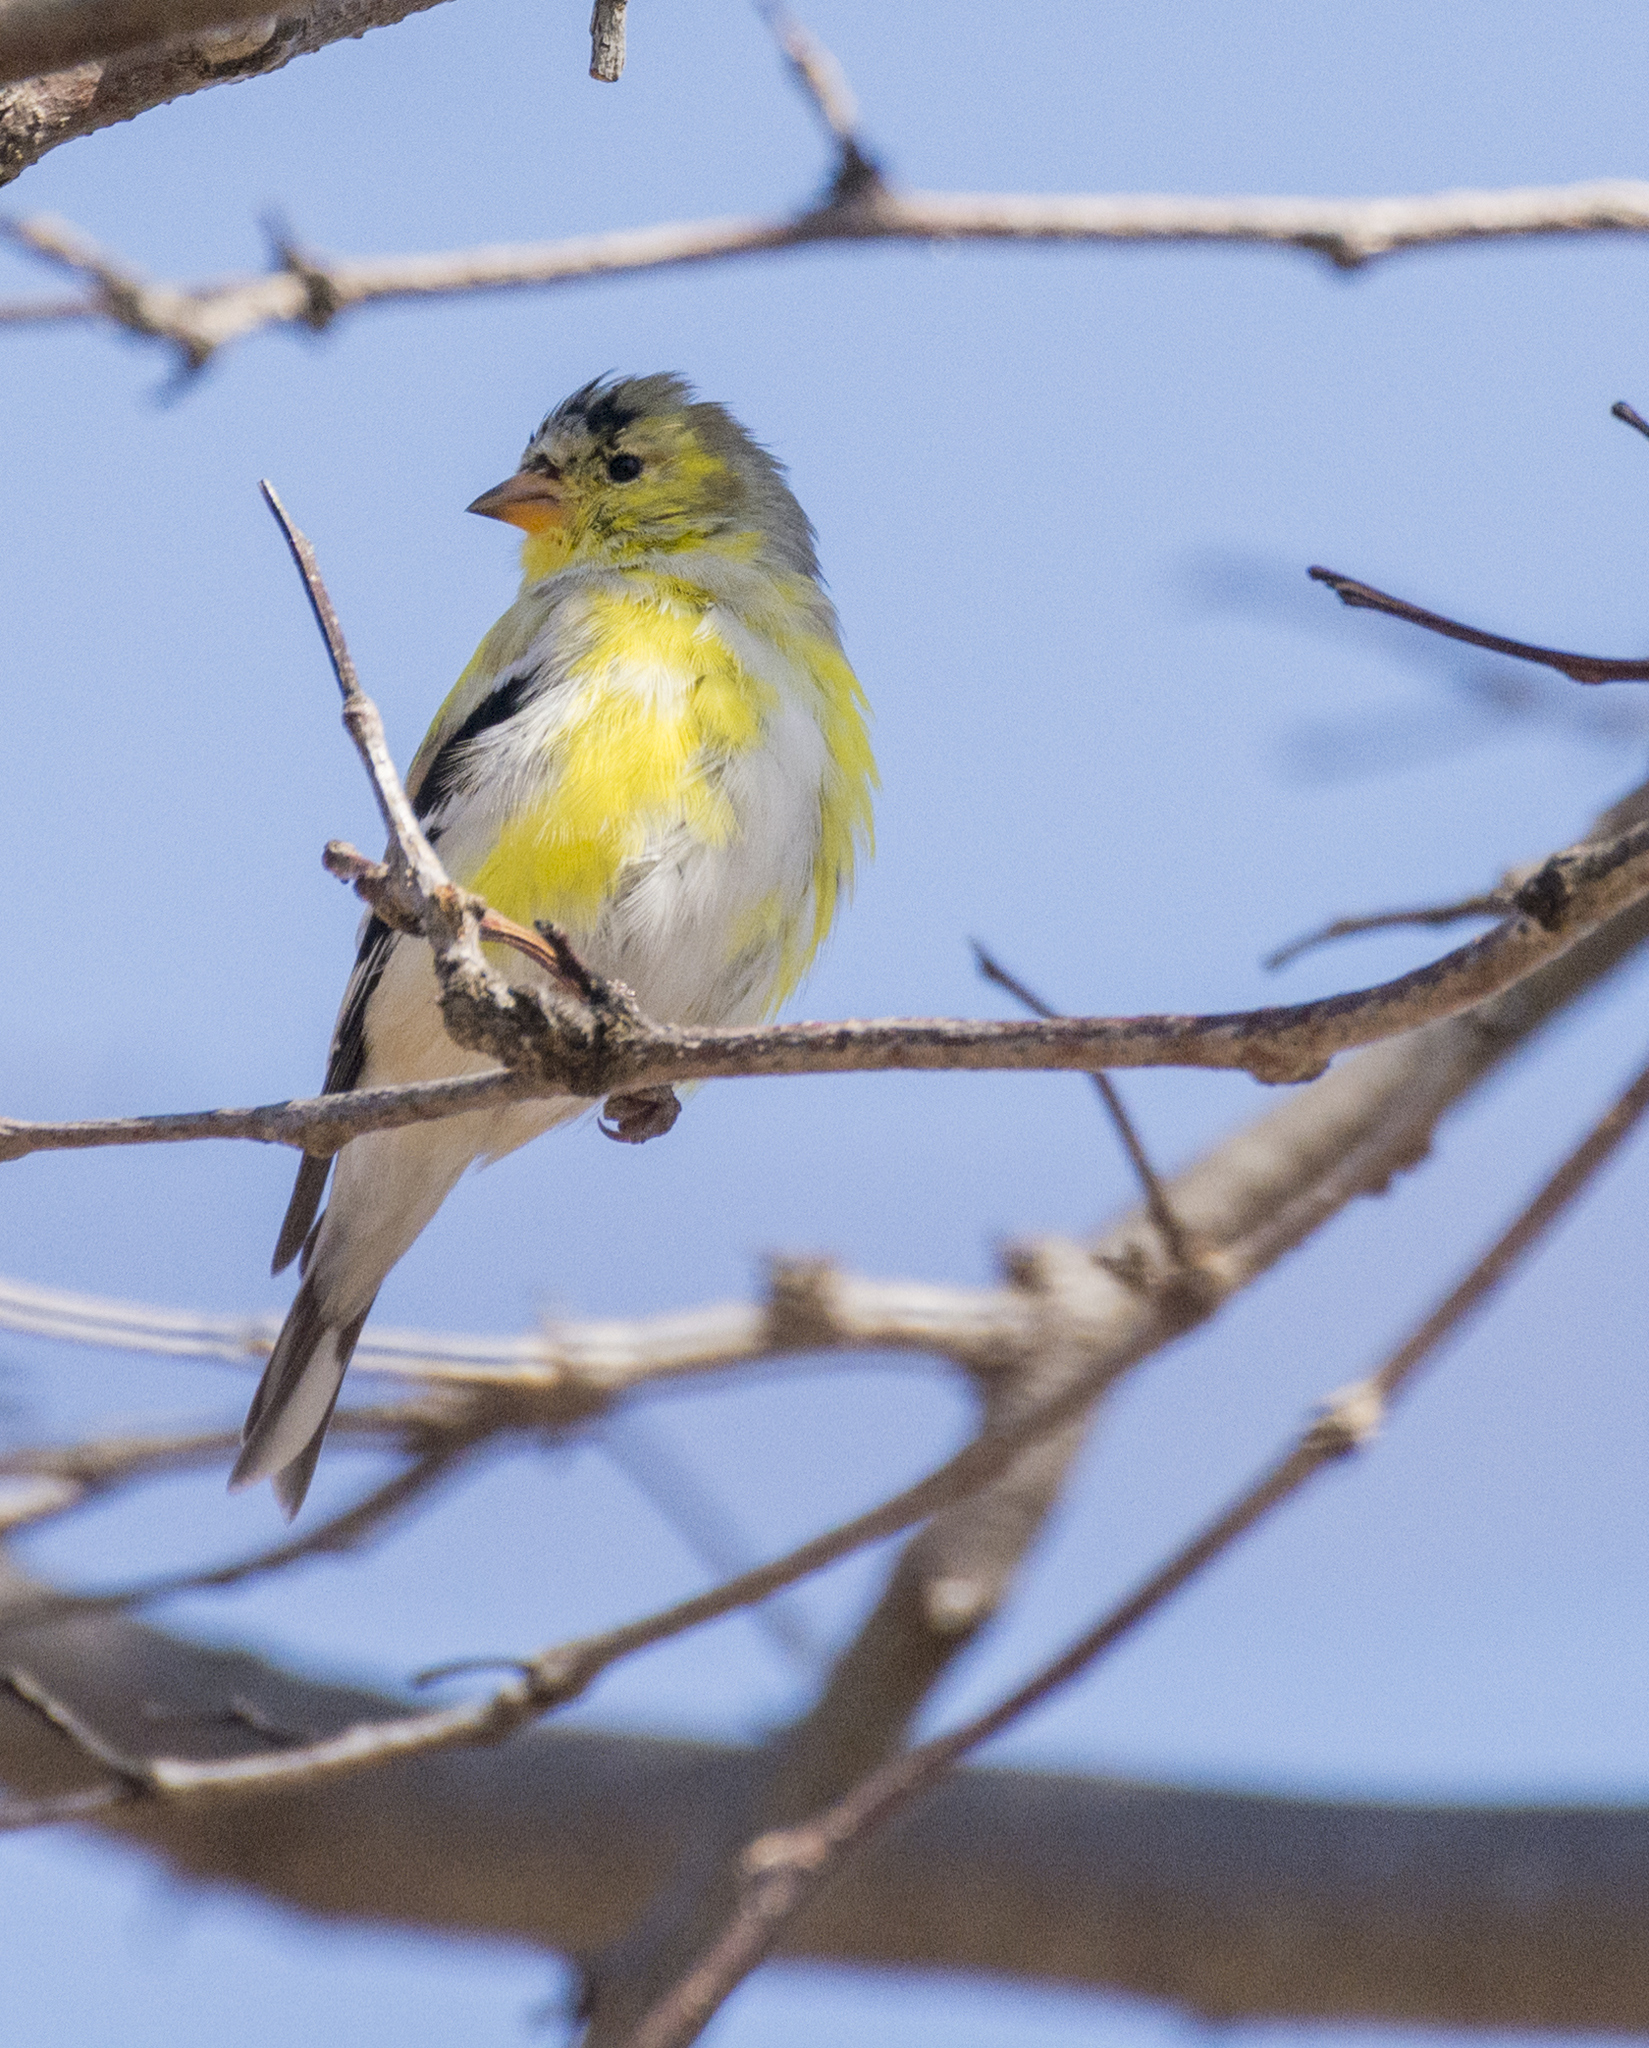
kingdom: Animalia
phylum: Chordata
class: Aves
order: Passeriformes
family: Fringillidae
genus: Spinus
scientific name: Spinus tristis
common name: American goldfinch
